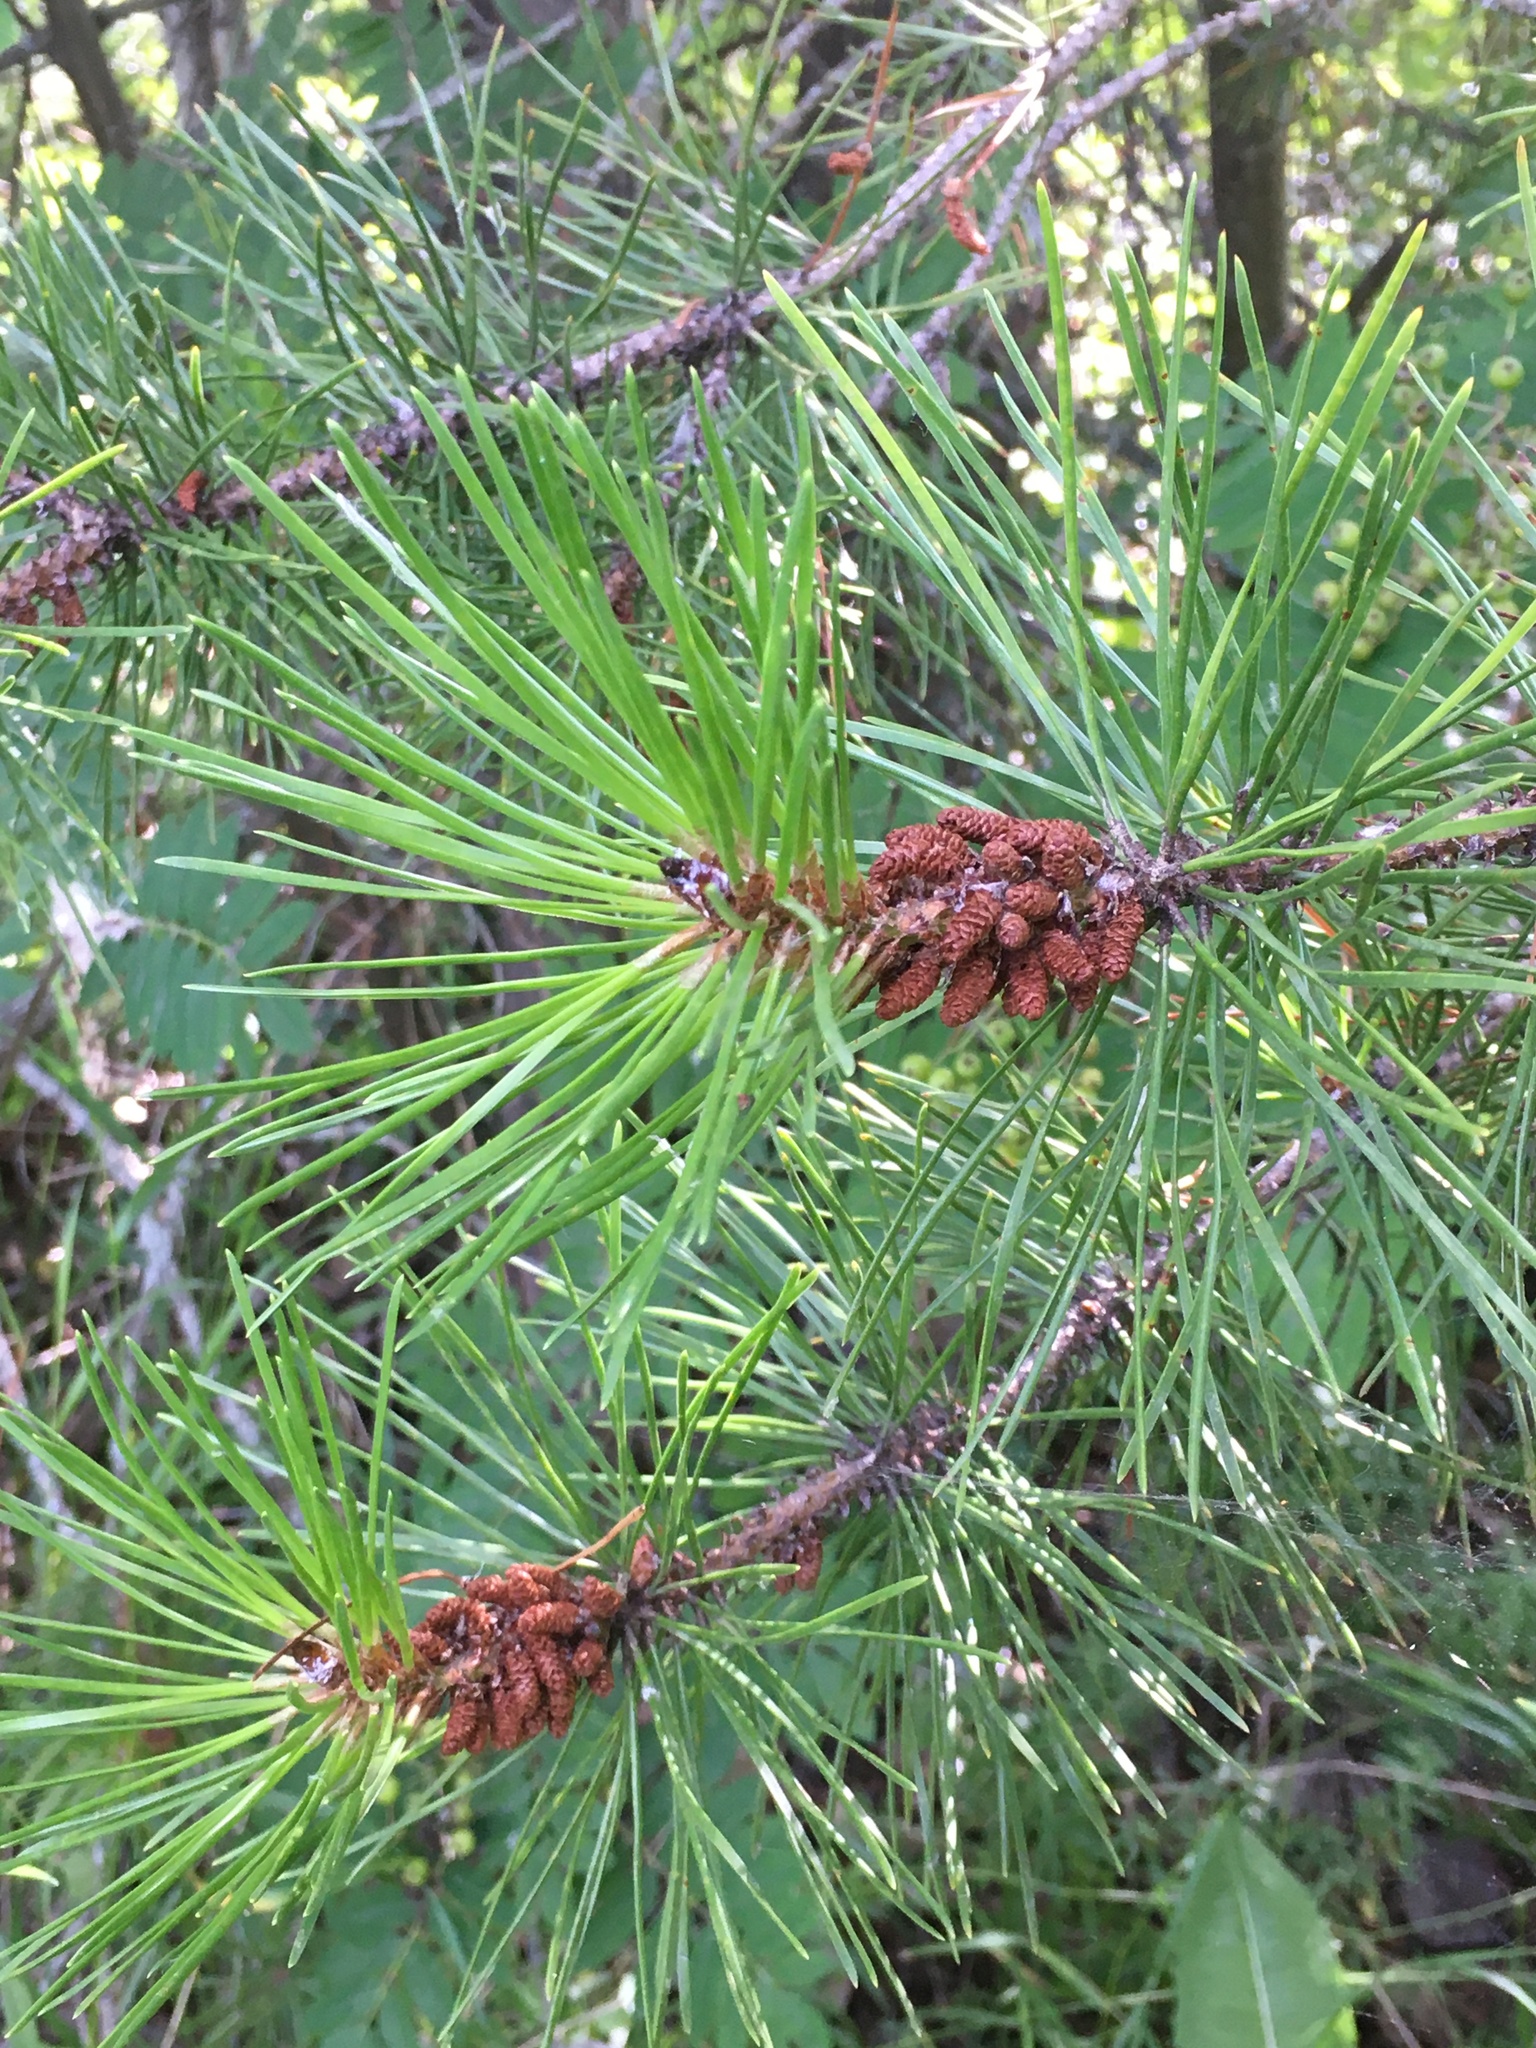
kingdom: Plantae
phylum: Tracheophyta
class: Pinopsida
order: Pinales
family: Pinaceae
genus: Pinus
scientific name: Pinus contorta
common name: Lodgepole pine
